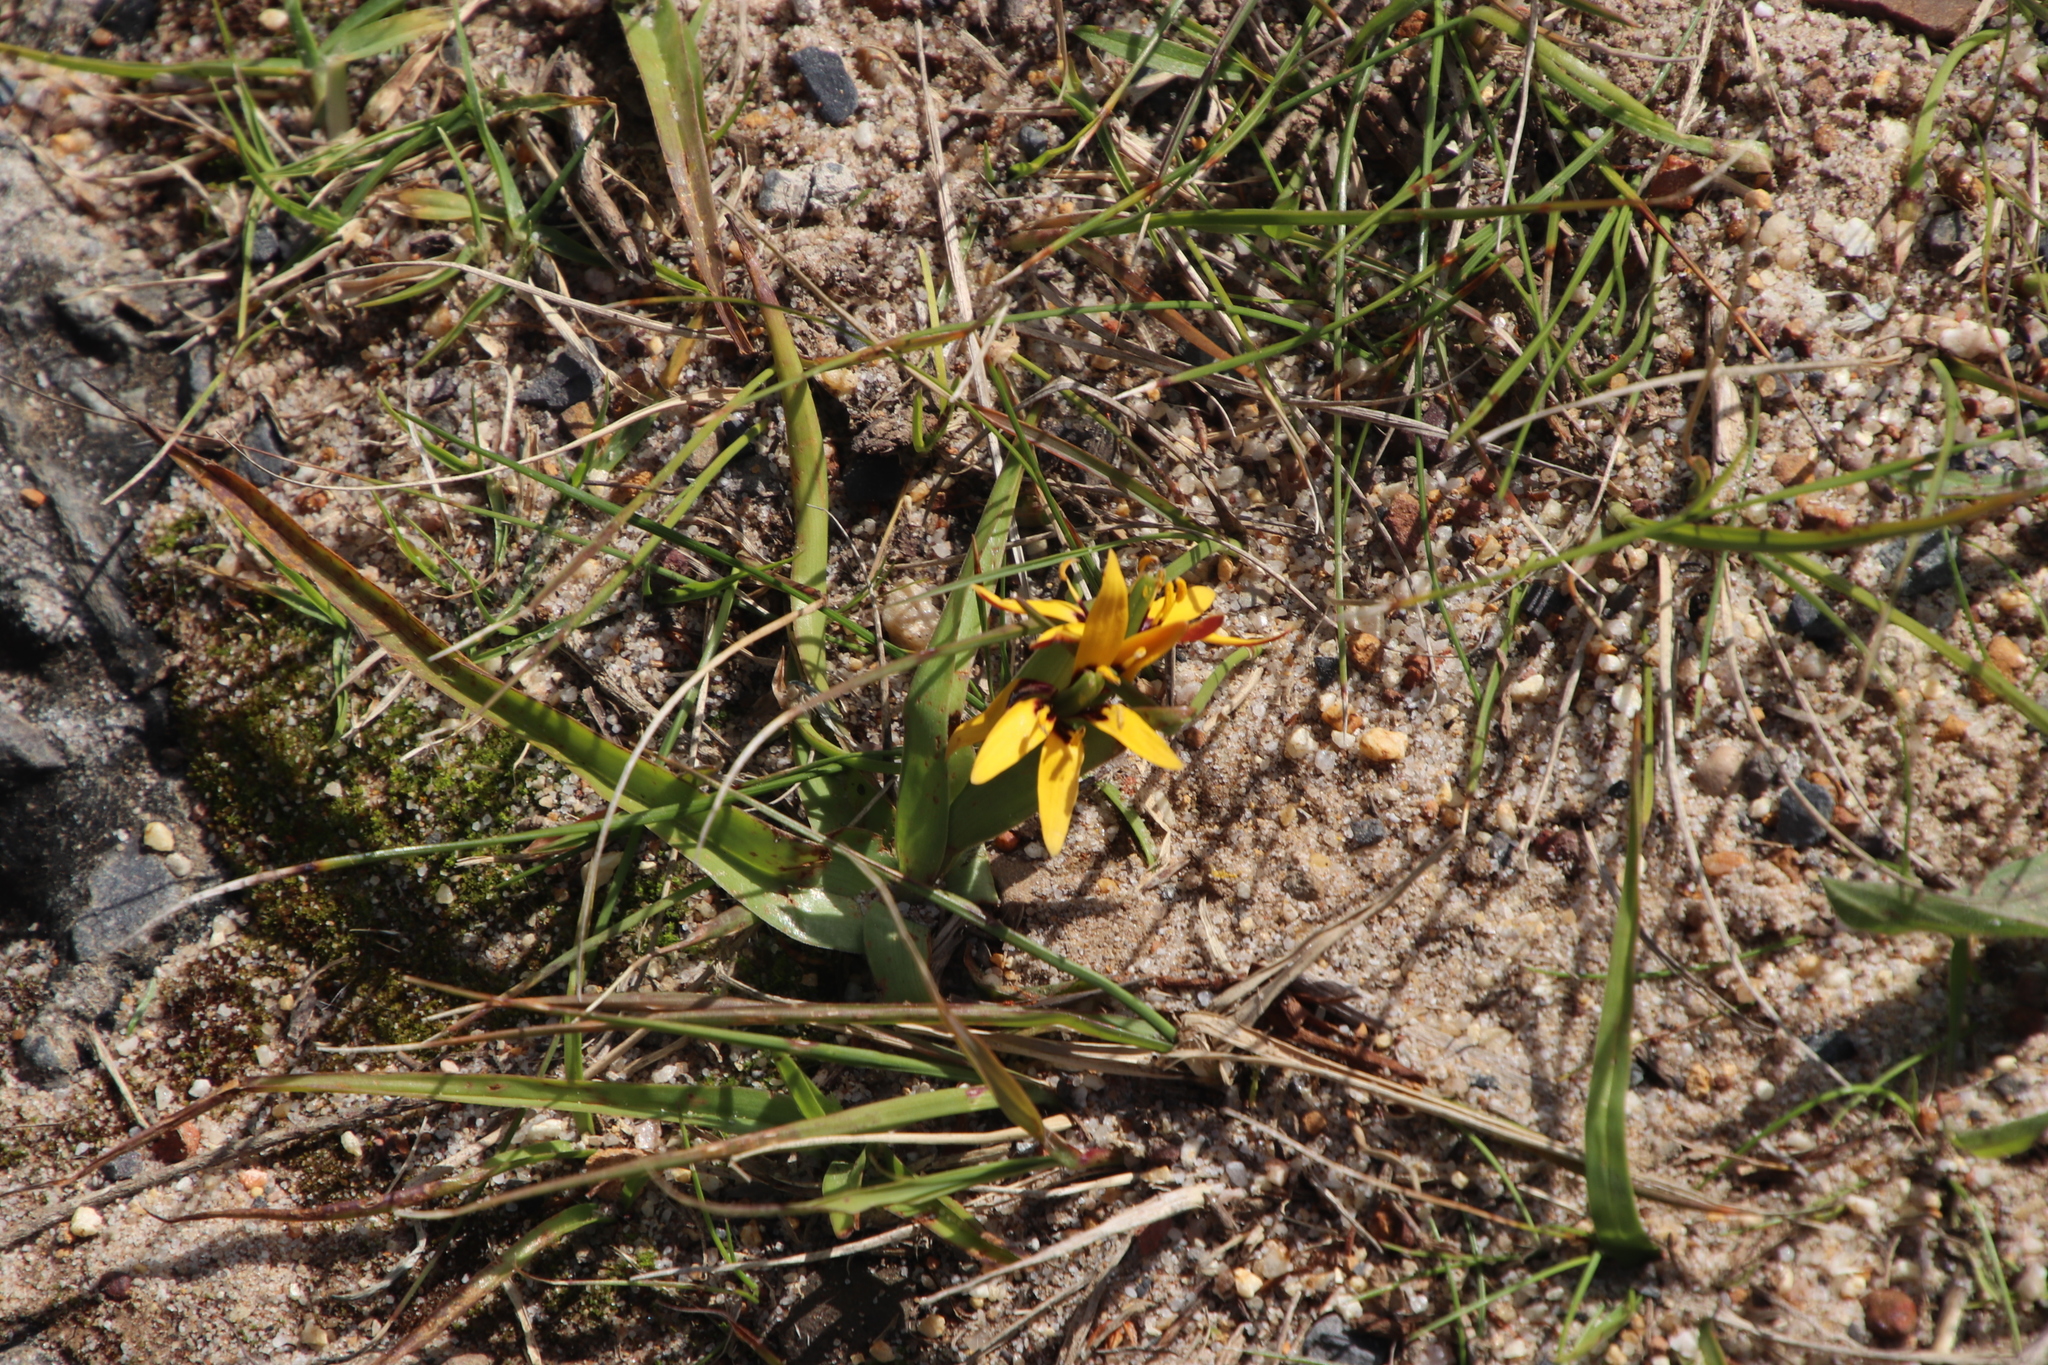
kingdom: Plantae
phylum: Tracheophyta
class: Liliopsida
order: Liliales
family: Colchicaceae
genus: Baeometra
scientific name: Baeometra uniflora
